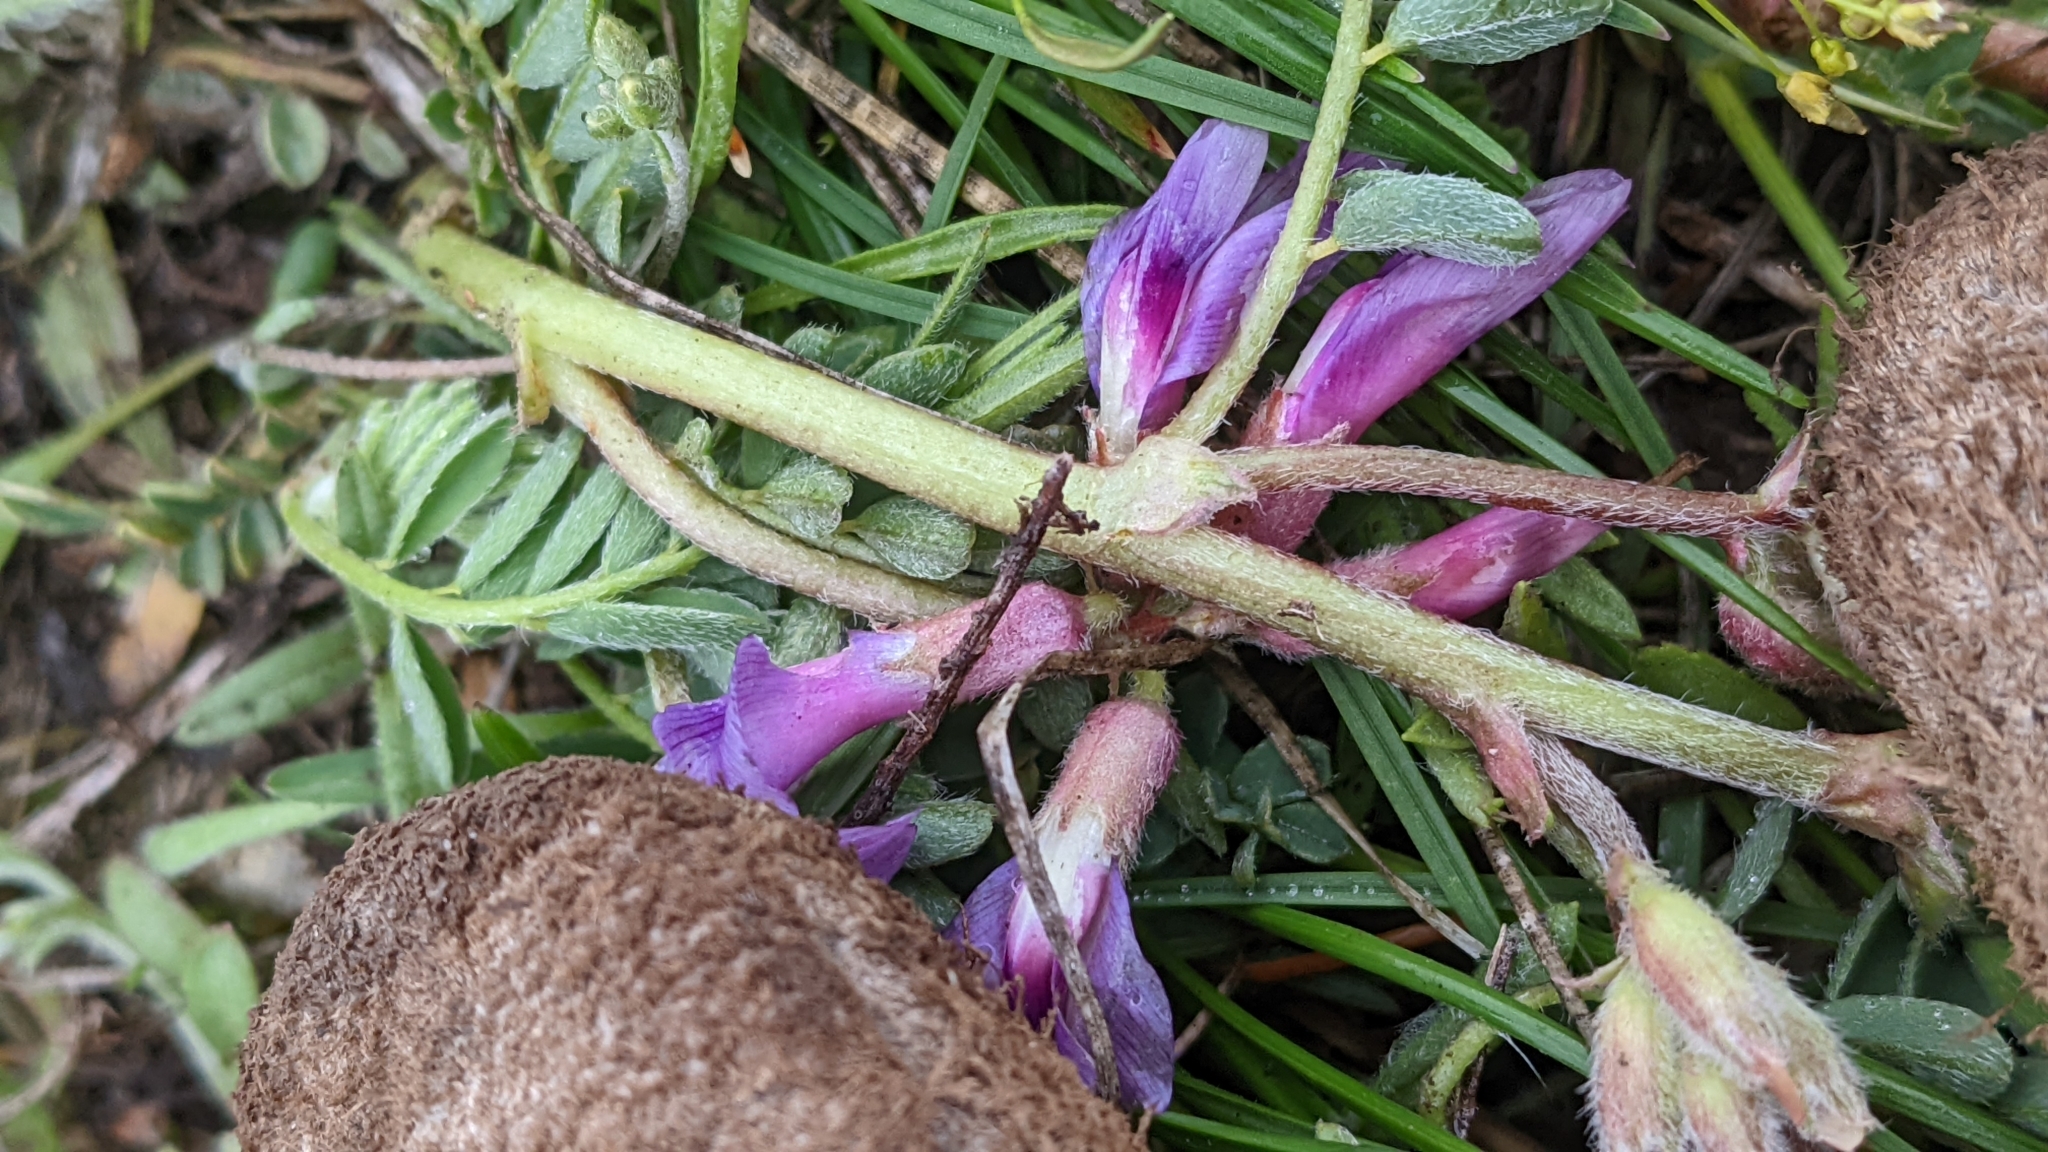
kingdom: Plantae
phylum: Tracheophyta
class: Magnoliopsida
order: Fabales
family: Fabaceae
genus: Astragalus
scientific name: Astragalus crassicarpus
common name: Ground-plum milk-vetch
